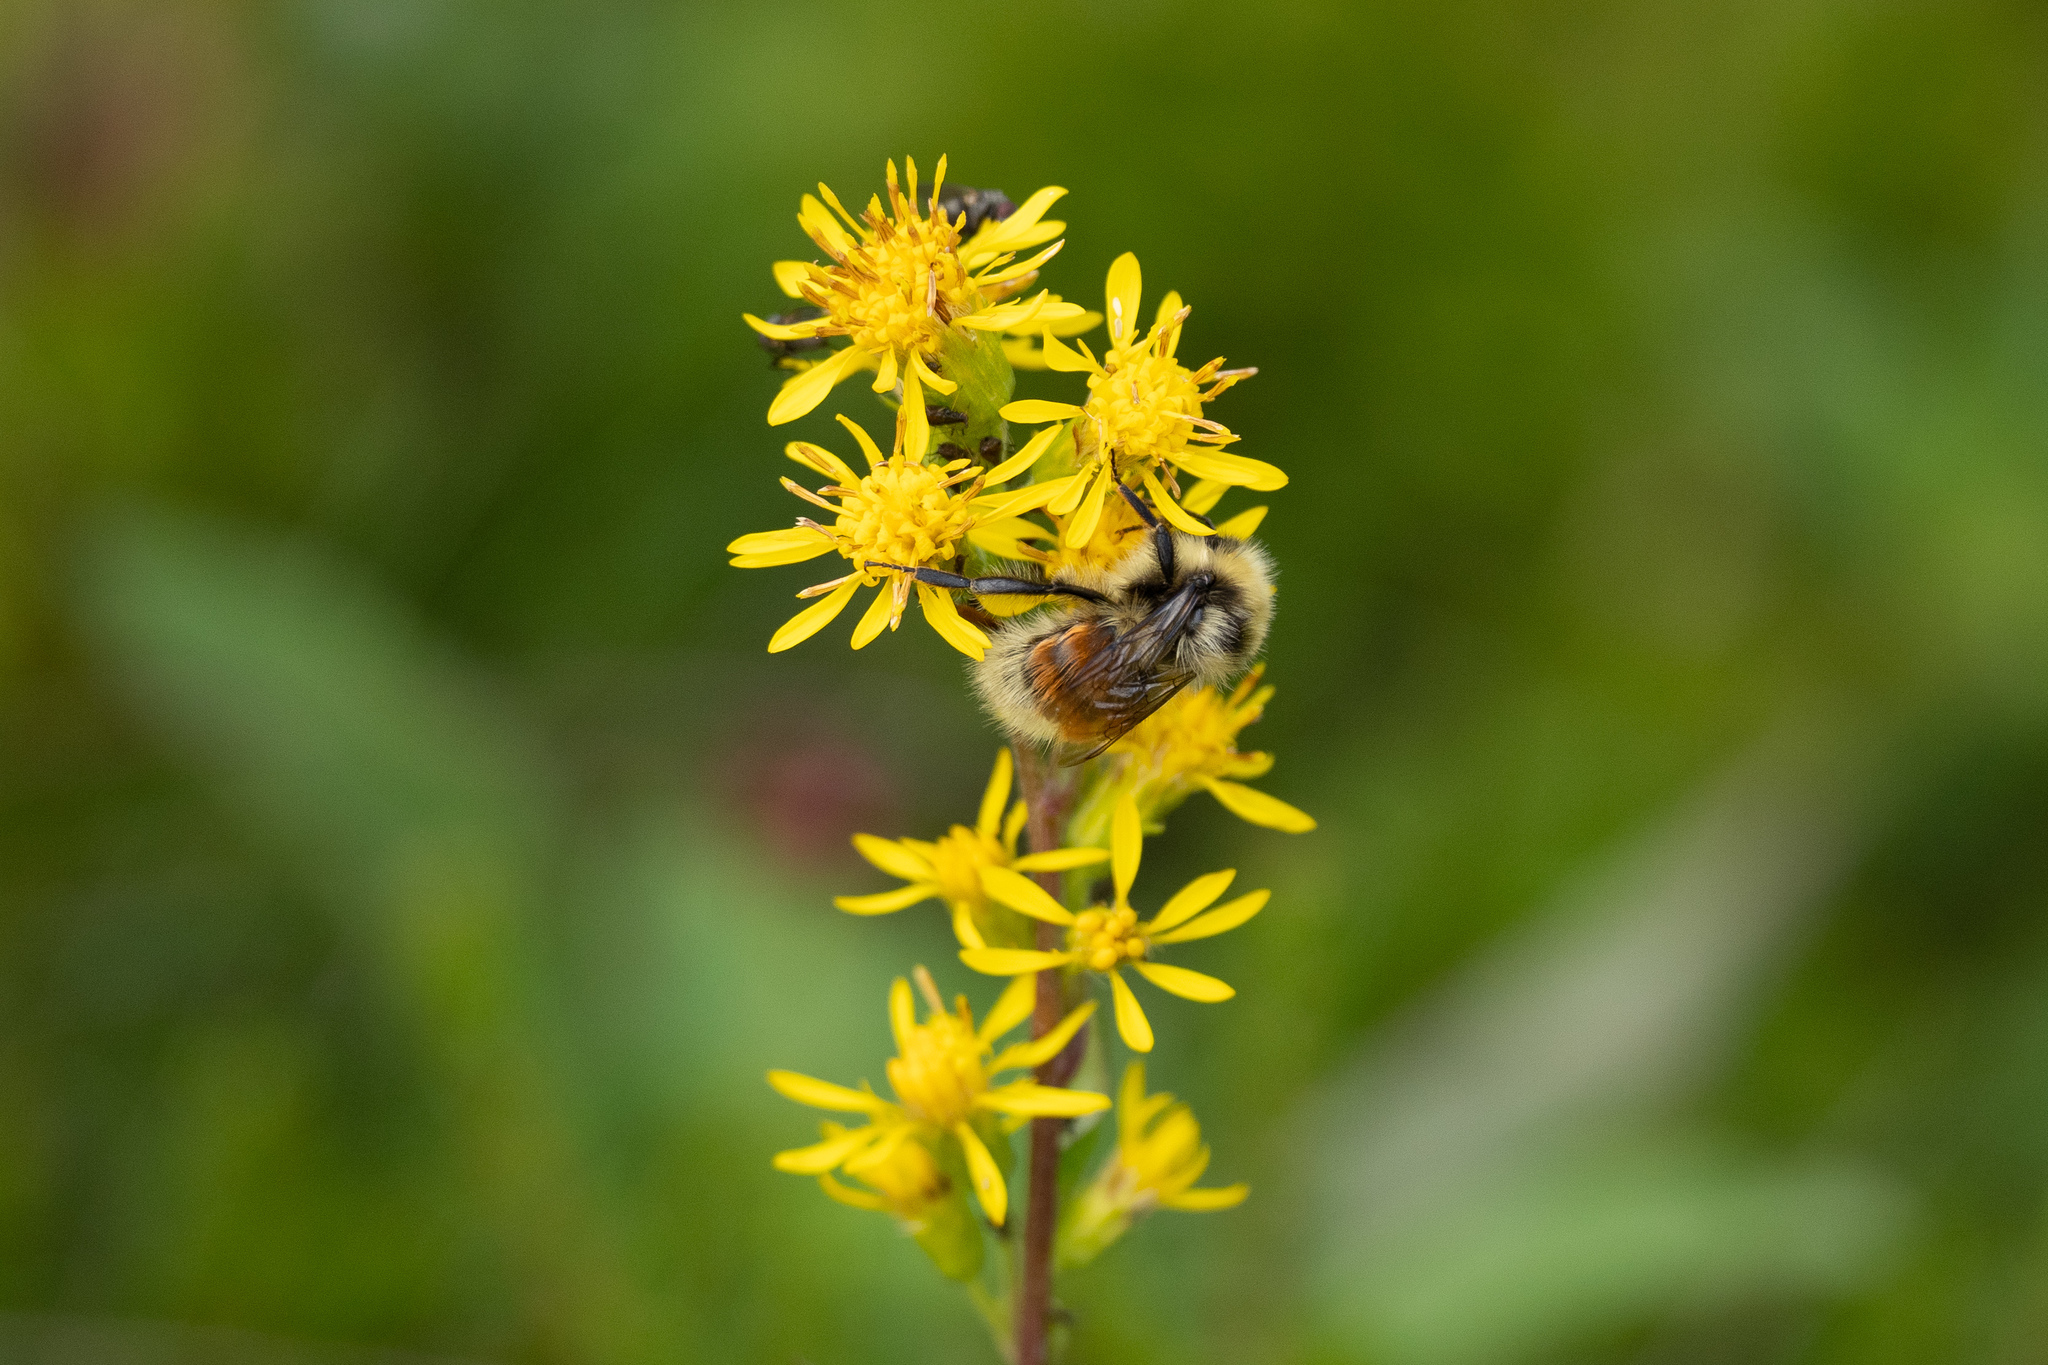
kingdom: Animalia
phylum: Arthropoda
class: Insecta
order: Hymenoptera
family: Apidae
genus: Bombus
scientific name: Bombus lapponicus
